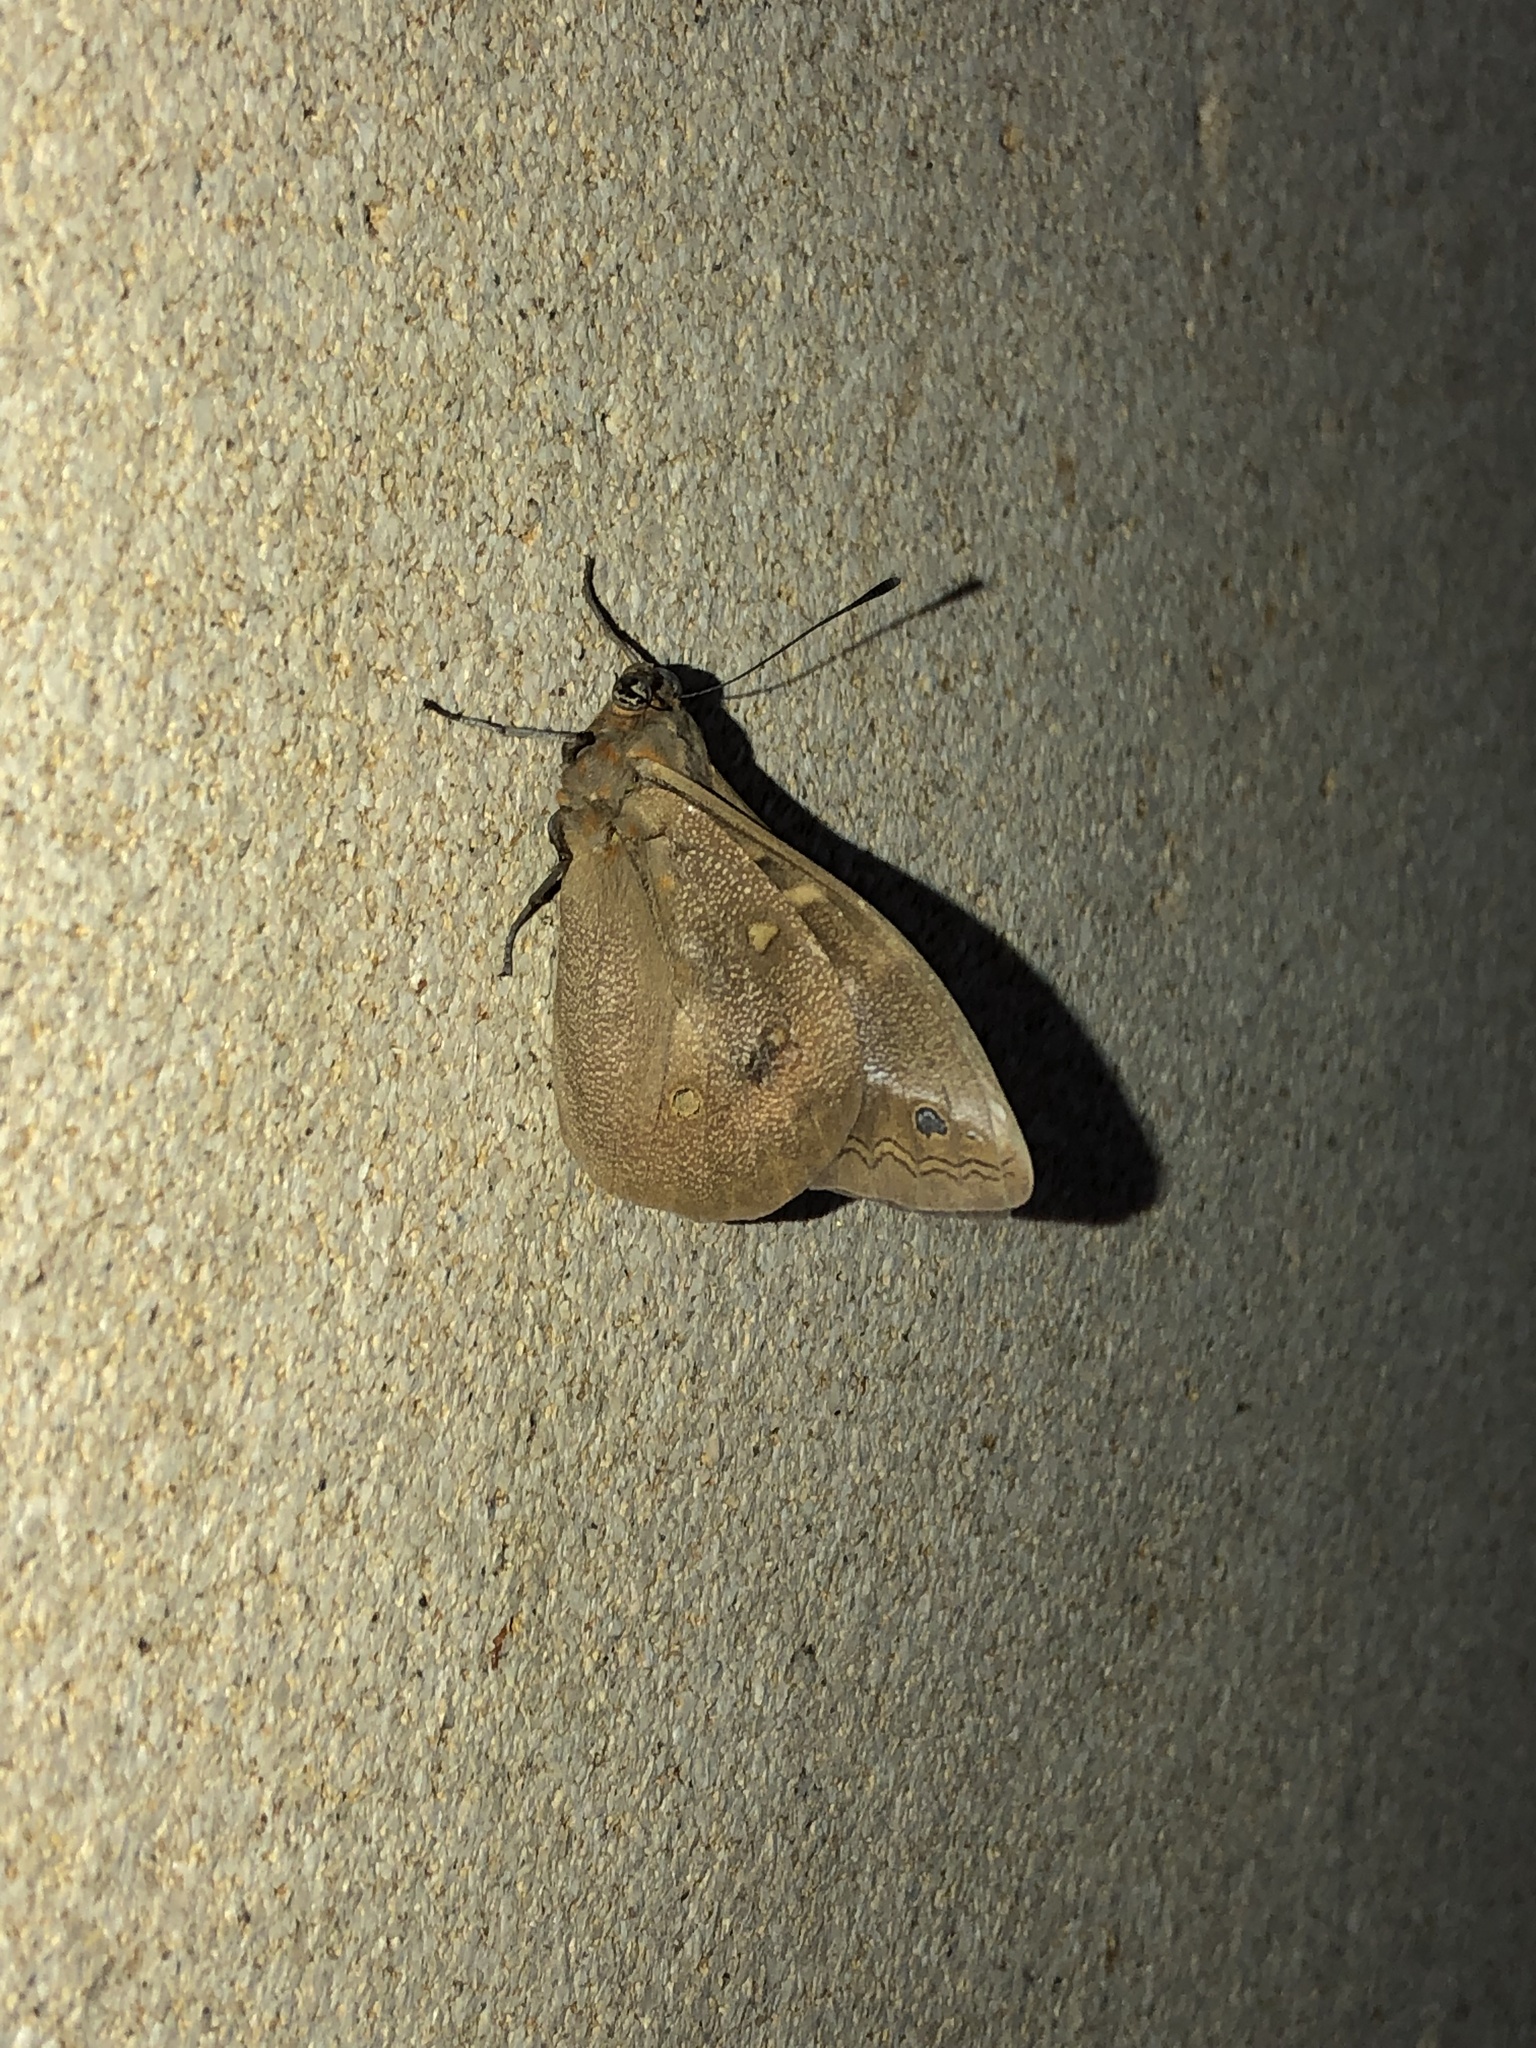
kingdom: Animalia
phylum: Arthropoda
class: Insecta
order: Lepidoptera
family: Nymphalidae
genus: Brassolis
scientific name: Brassolis sophorae
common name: Coconut caterpillar
